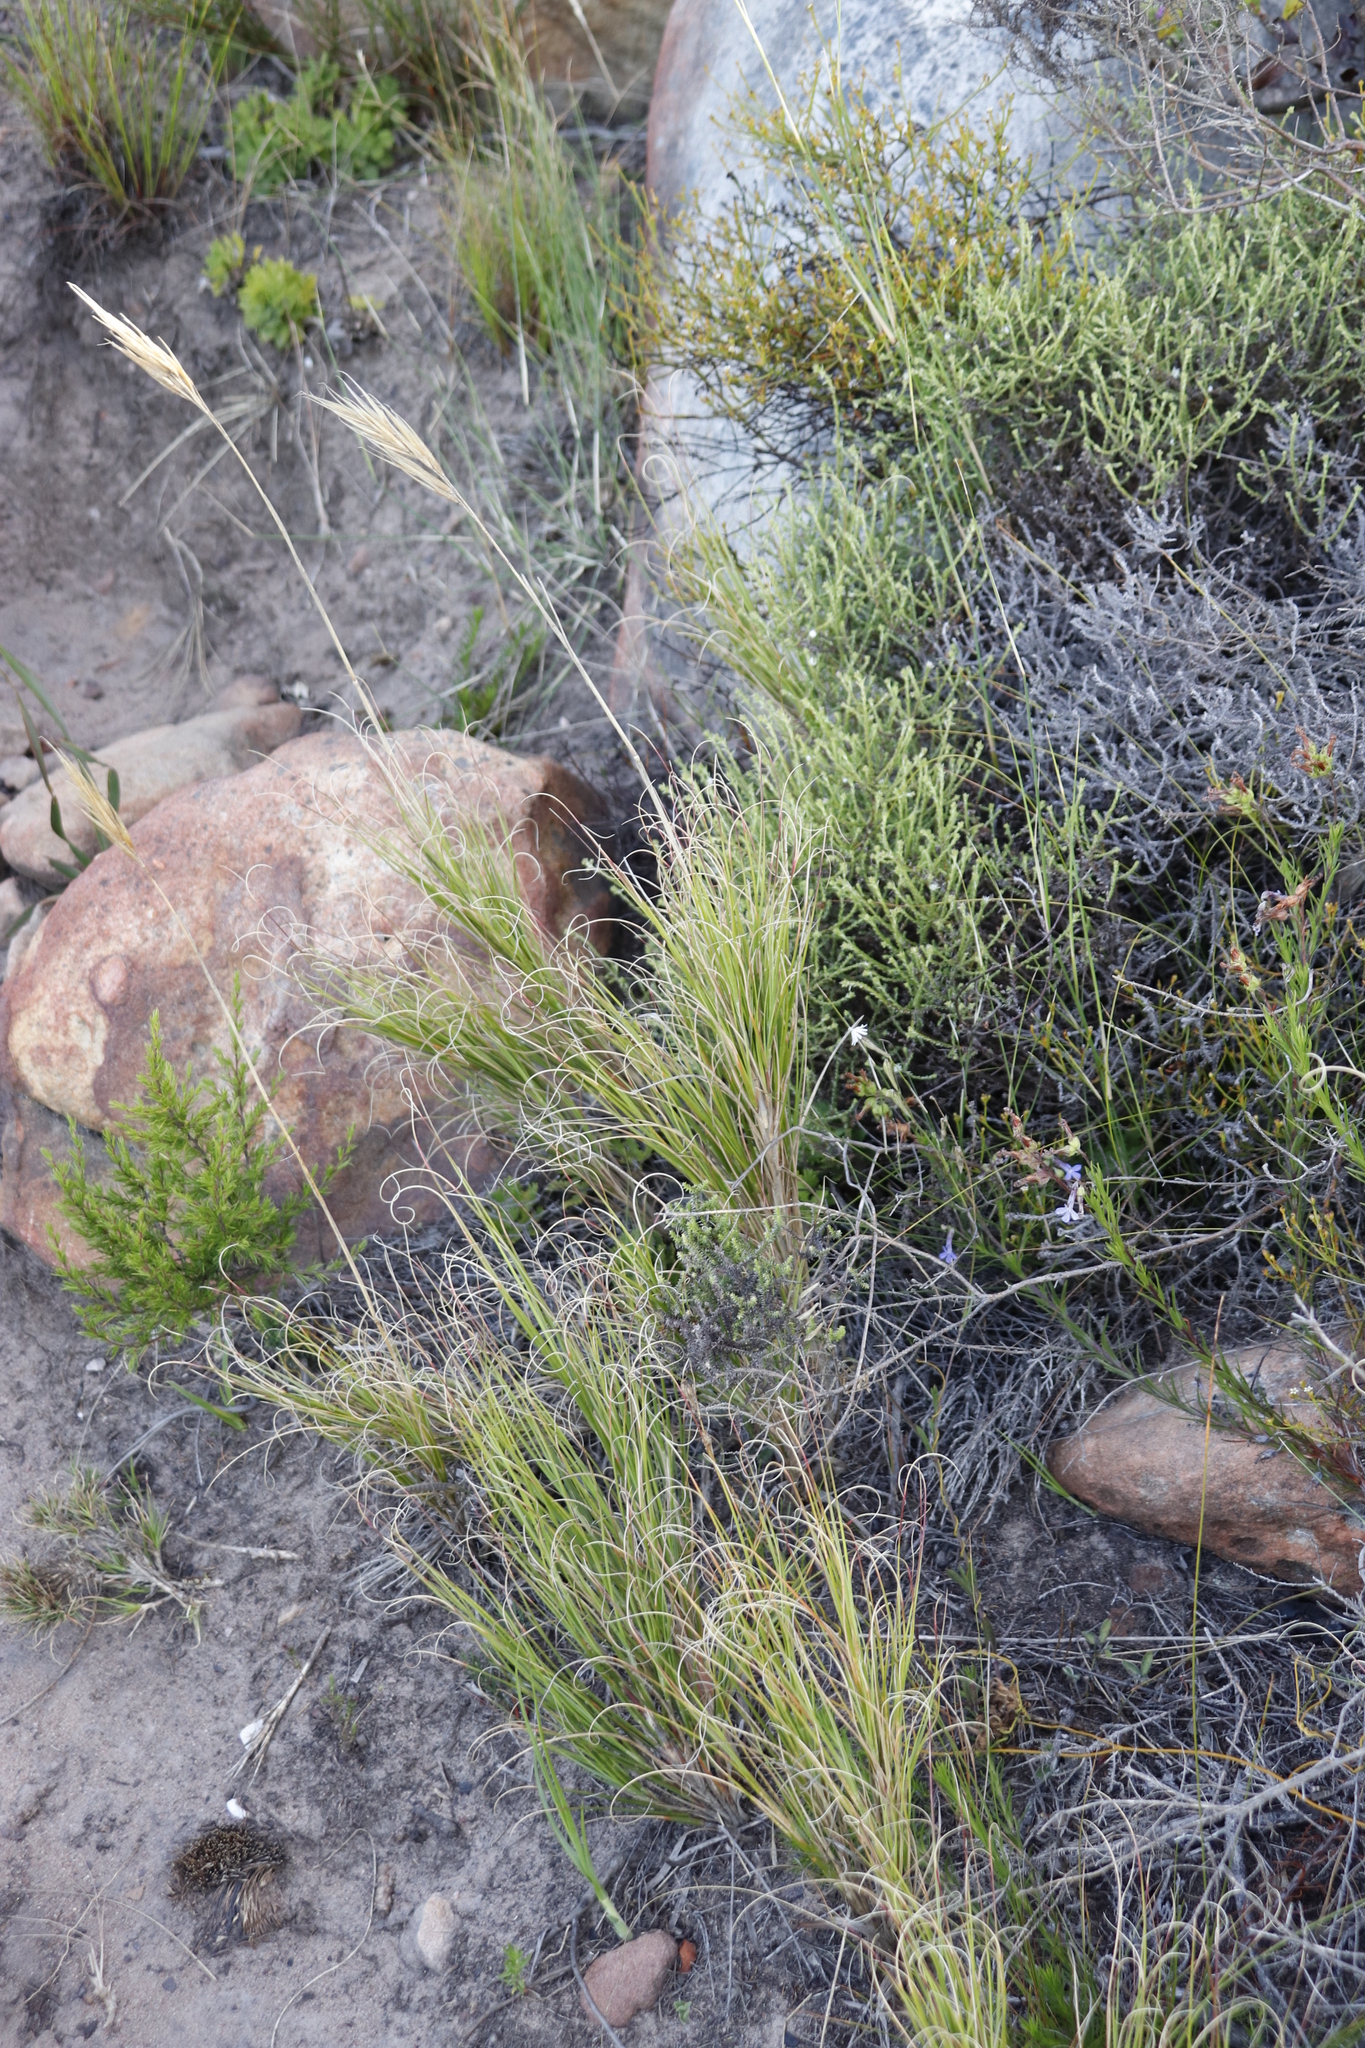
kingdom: Plantae
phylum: Tracheophyta
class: Liliopsida
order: Poales
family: Poaceae
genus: Pseudopentameris
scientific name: Pseudopentameris macrantha
